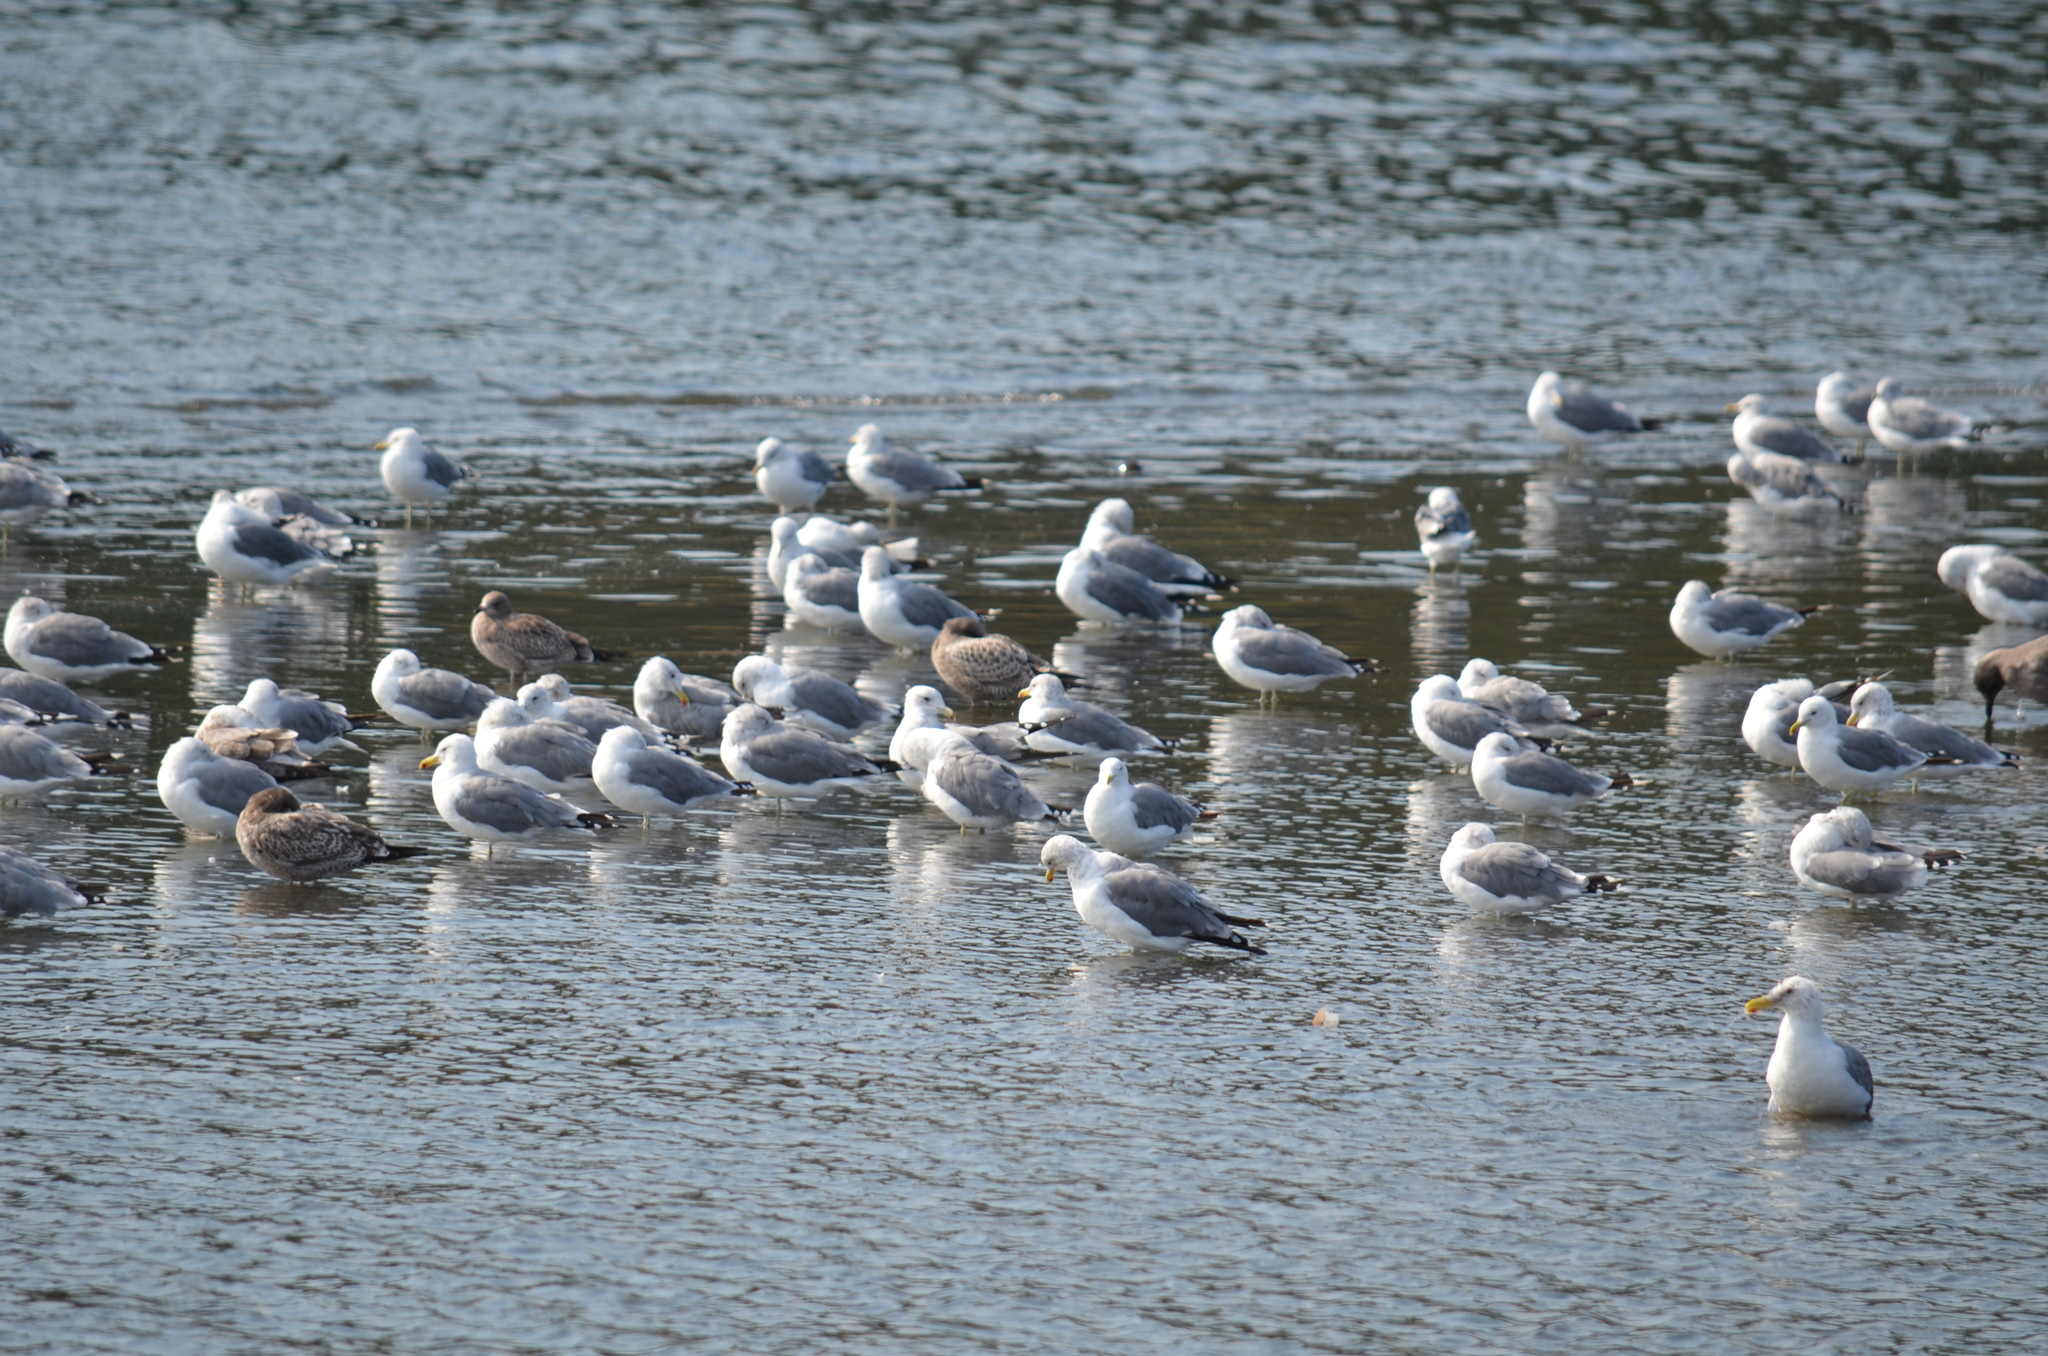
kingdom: Animalia
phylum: Chordata
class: Aves
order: Charadriiformes
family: Laridae
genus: Larus
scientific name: Larus californicus
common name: California gull
